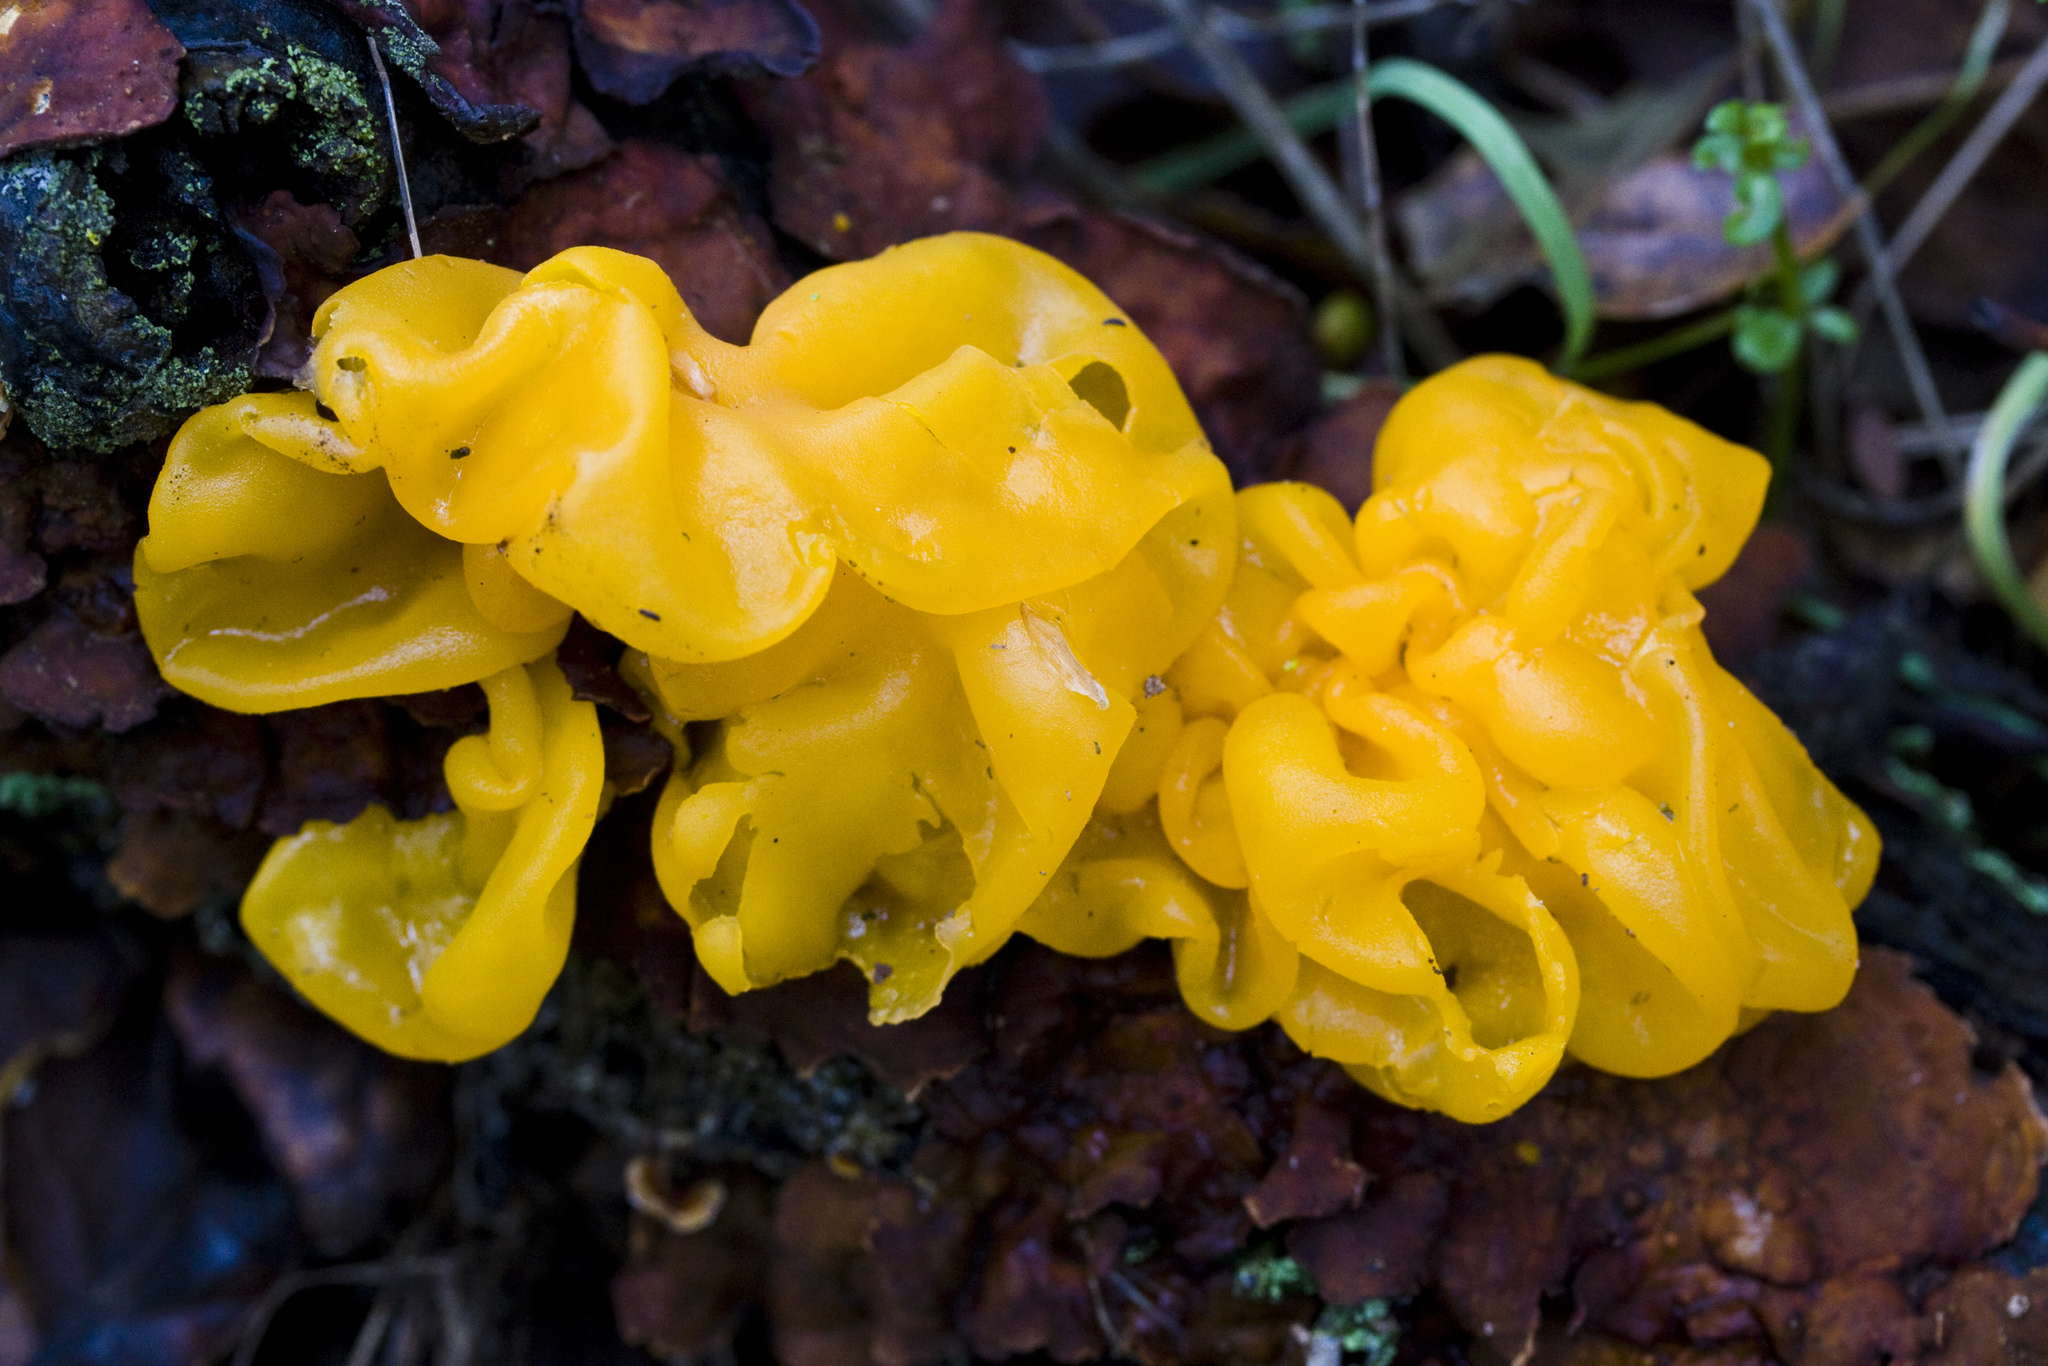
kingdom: Fungi
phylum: Basidiomycota
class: Tremellomycetes
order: Tremellales
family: Naemateliaceae
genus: Naematelia
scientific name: Naematelia aurantia
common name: Golden ear
